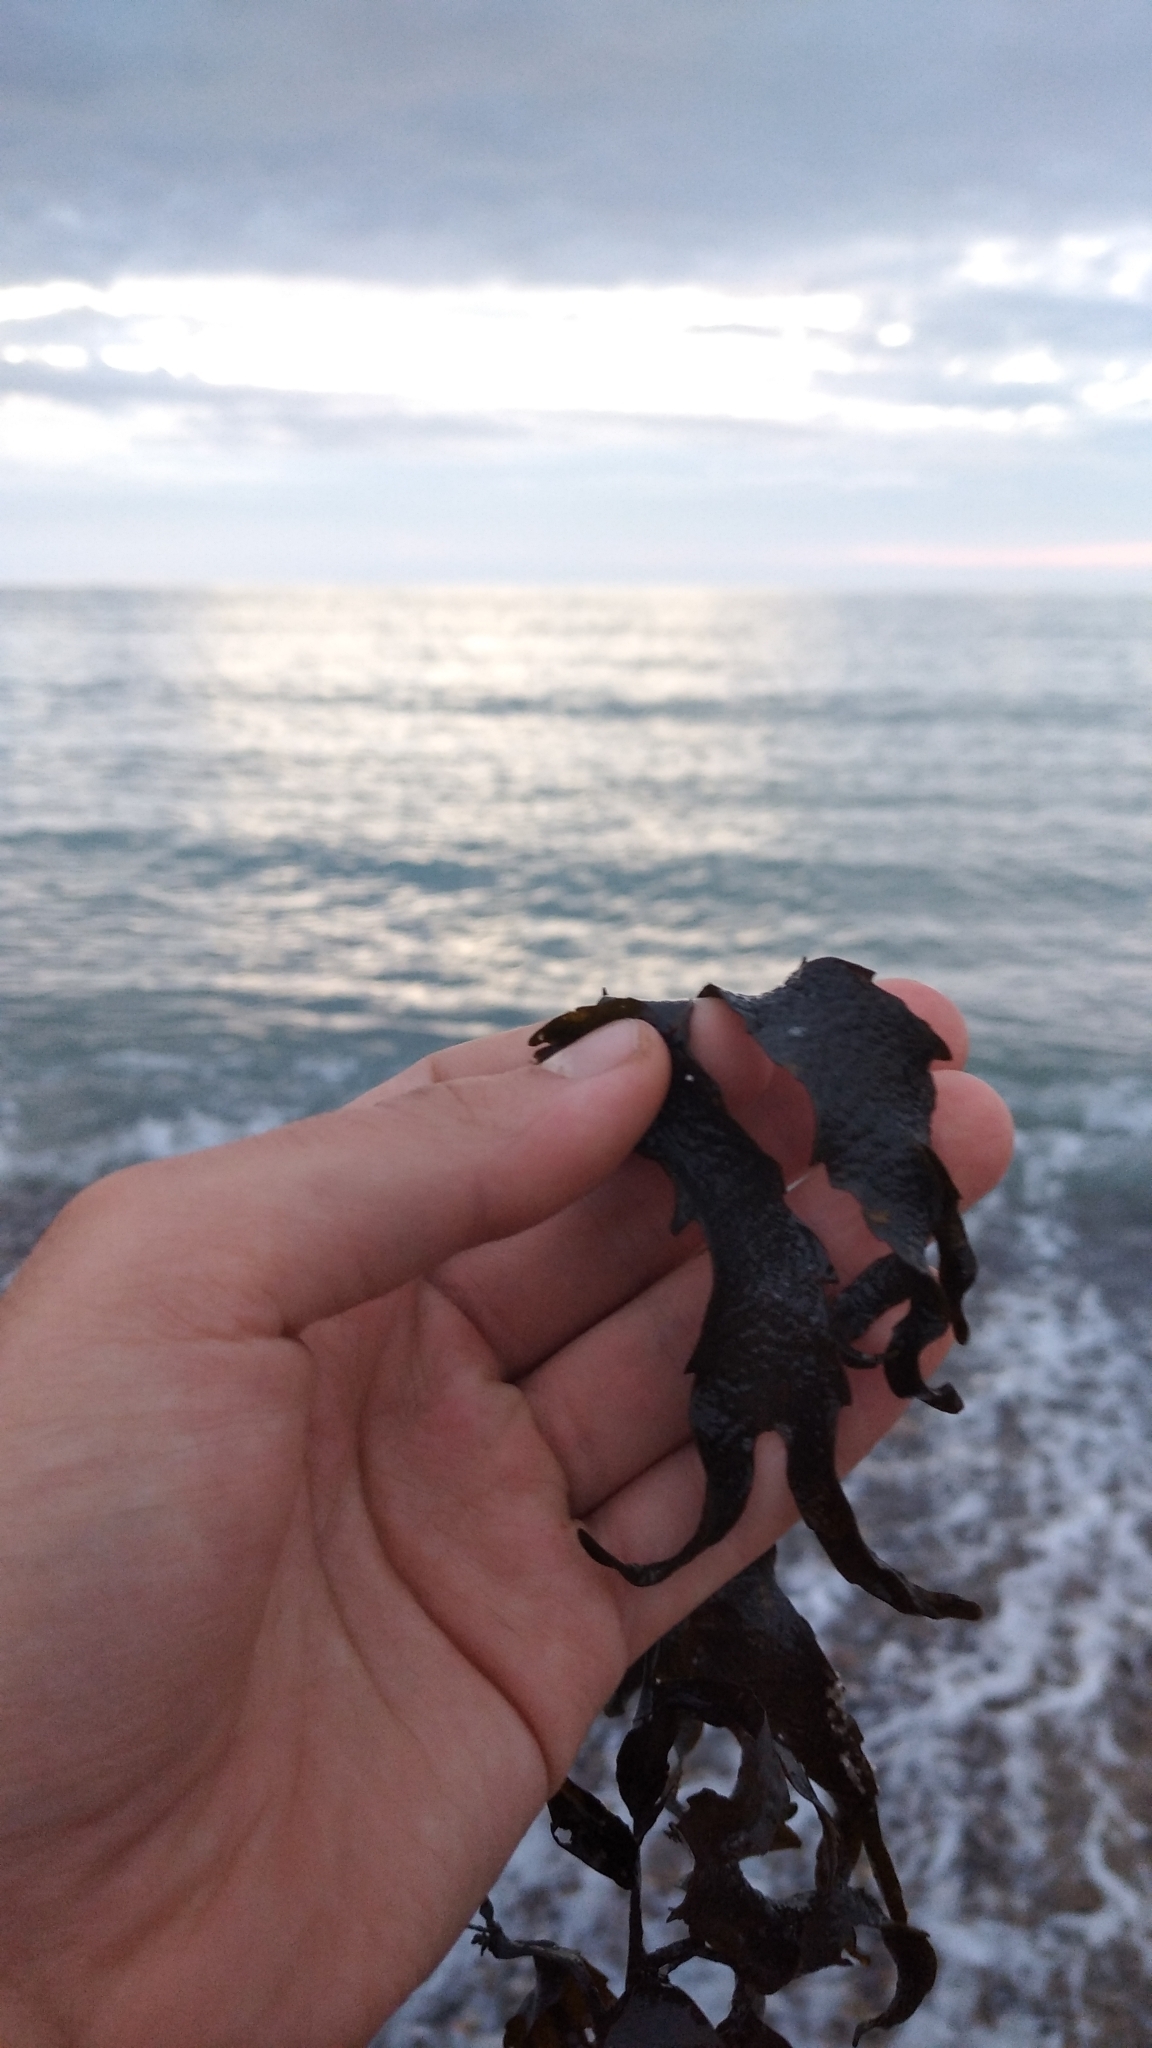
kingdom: Chromista
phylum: Ochrophyta
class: Phaeophyceae
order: Fucales
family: Fucaceae
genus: Fucus
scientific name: Fucus serratus
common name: Toothed wrack
